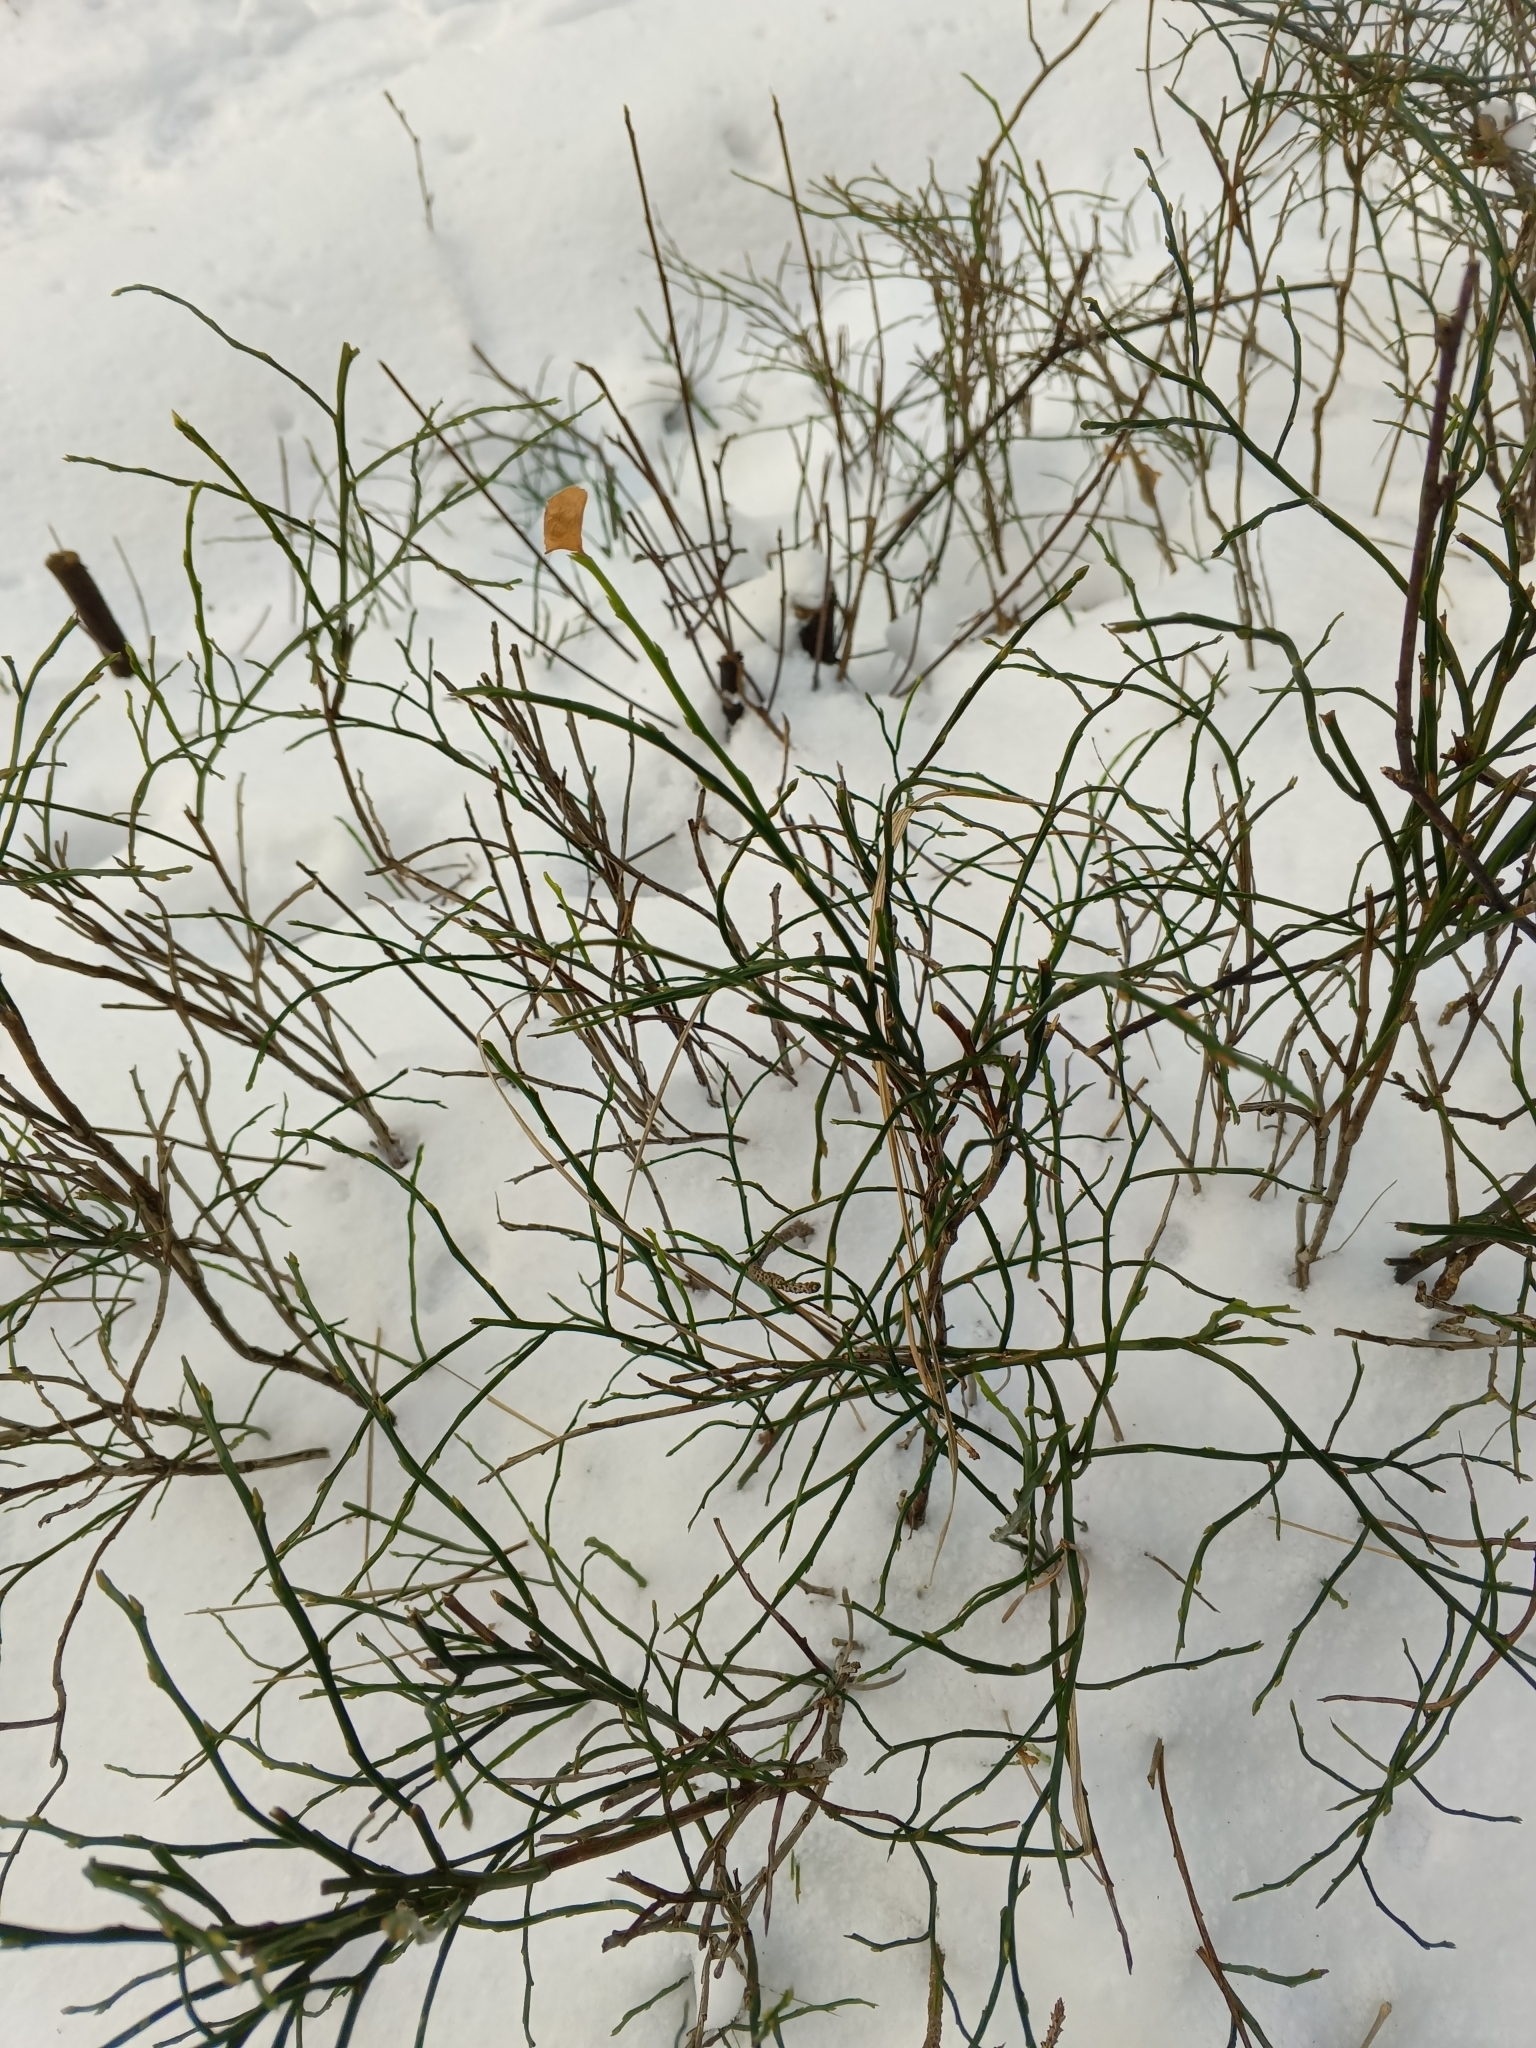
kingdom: Plantae
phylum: Tracheophyta
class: Magnoliopsida
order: Ericales
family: Ericaceae
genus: Vaccinium
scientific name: Vaccinium myrtillus
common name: Bilberry
